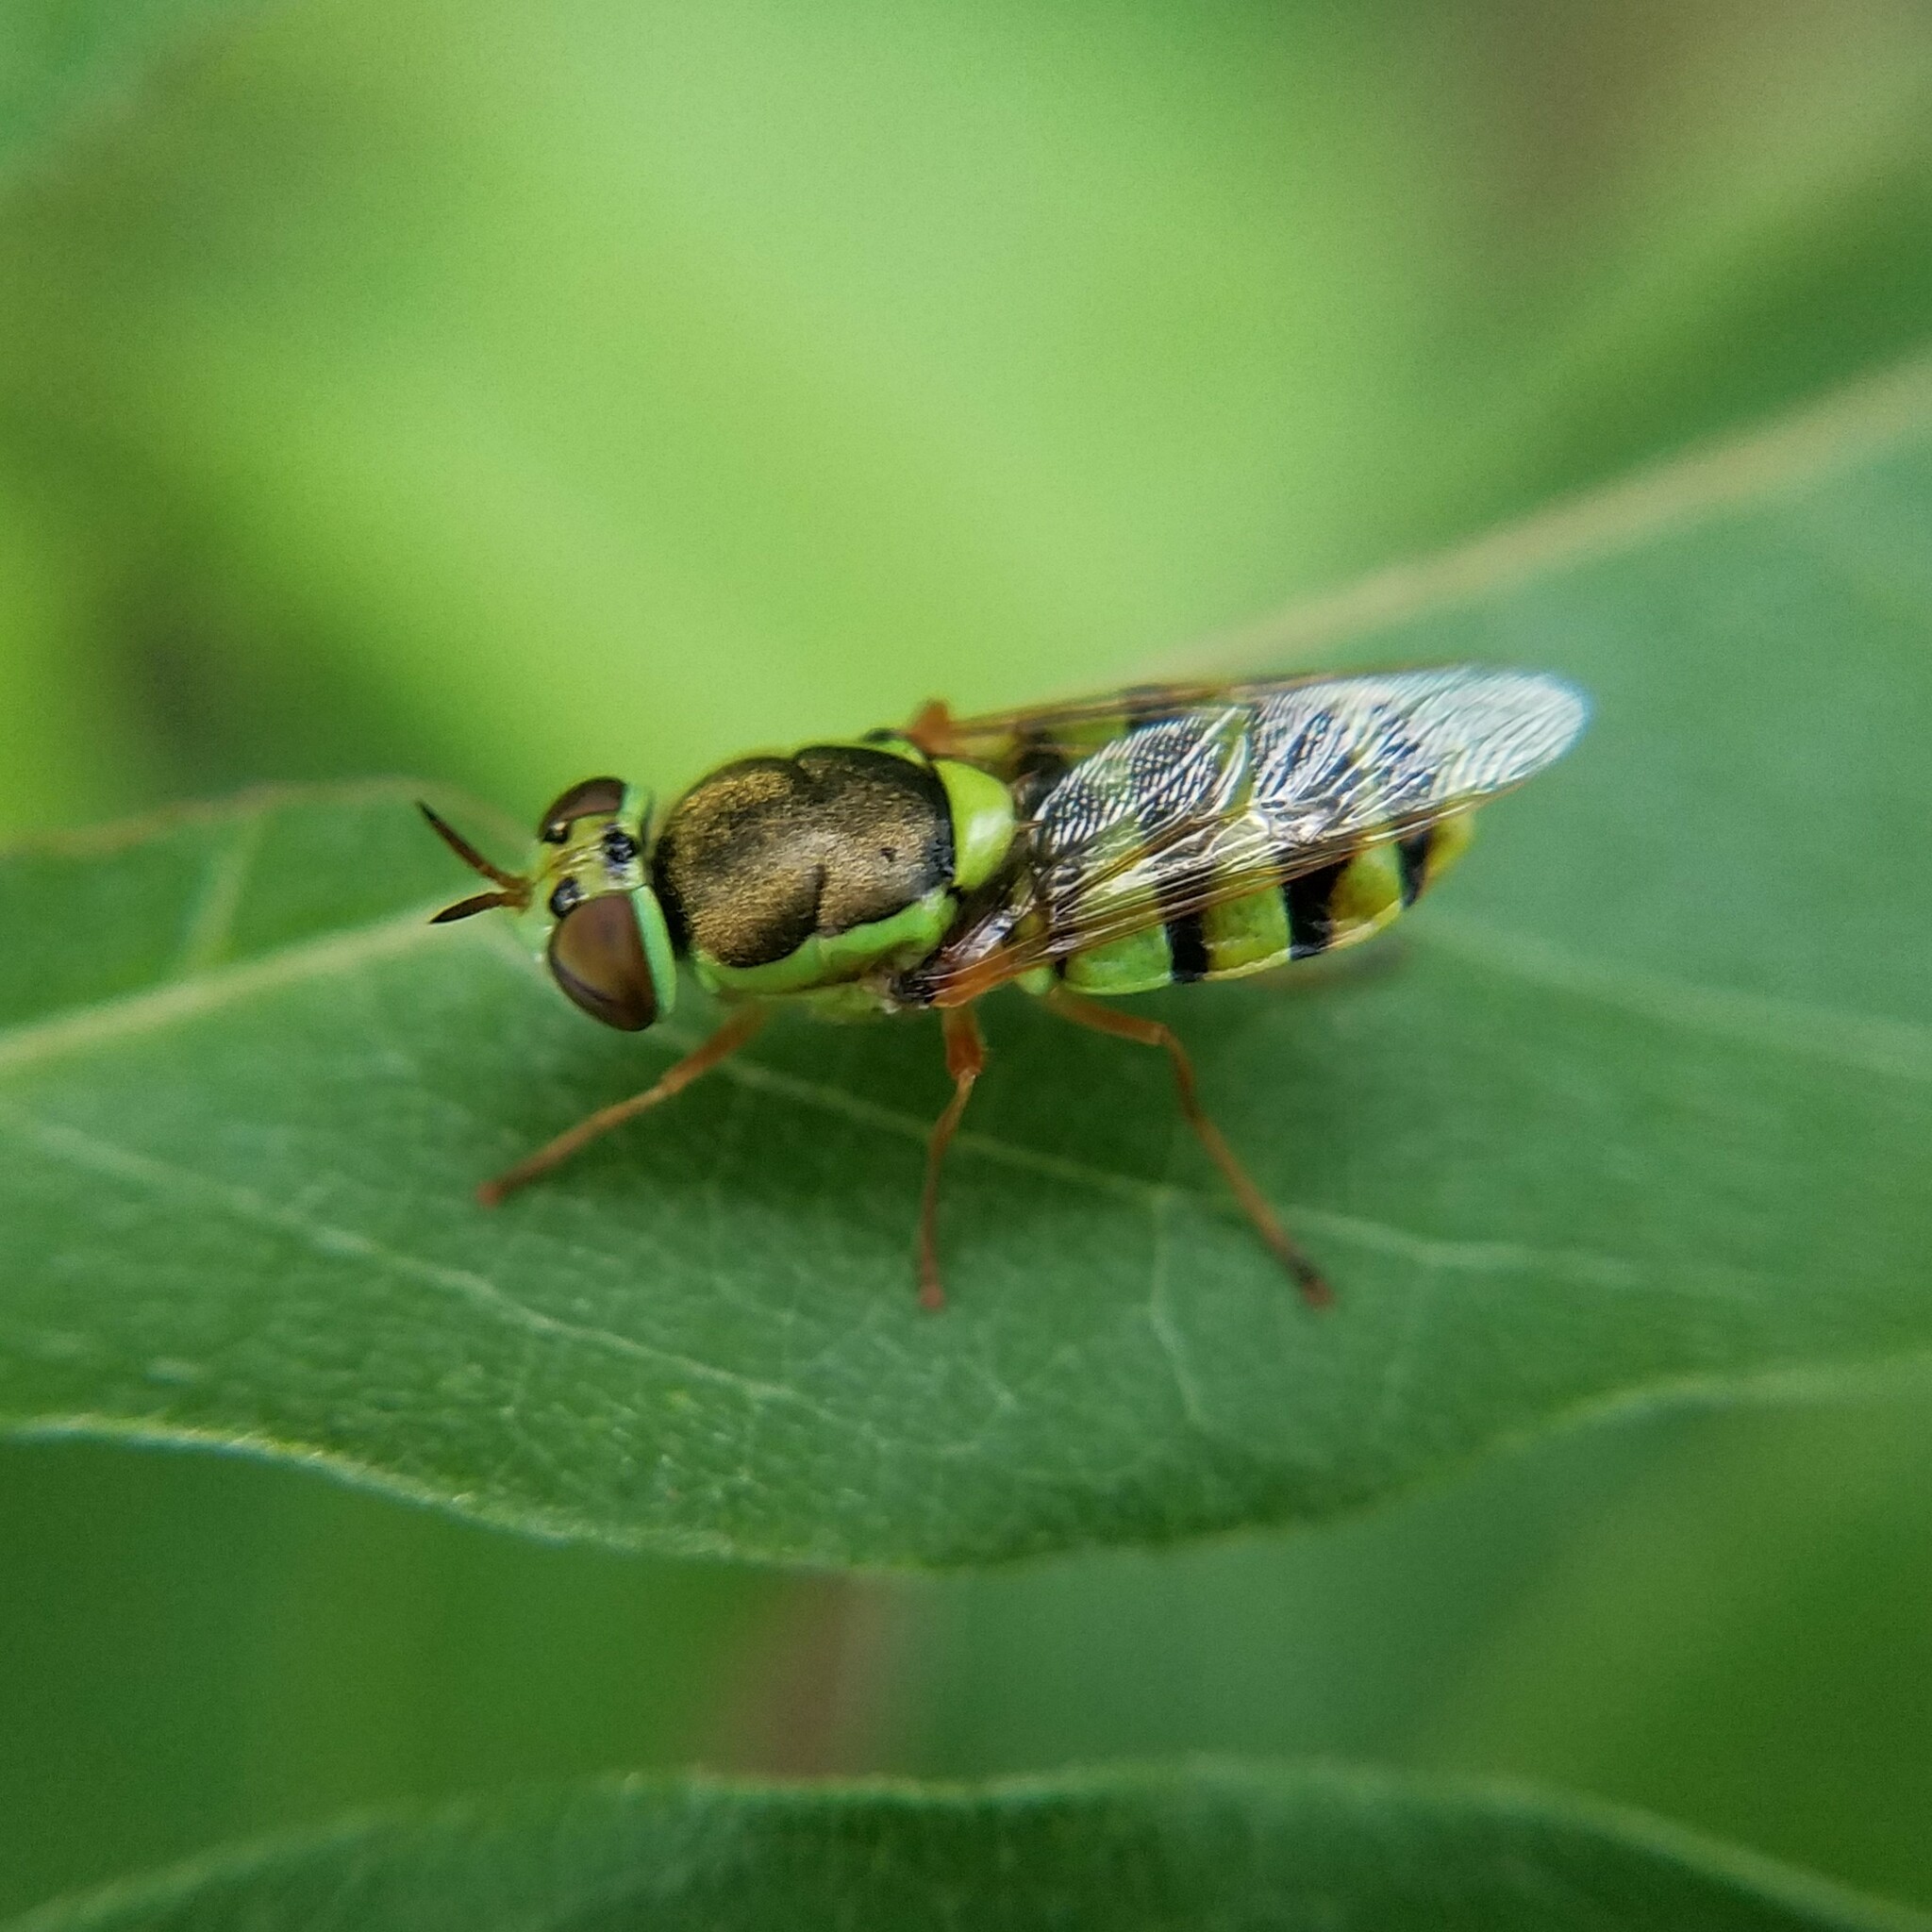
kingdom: Animalia
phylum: Arthropoda
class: Insecta
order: Diptera
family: Stratiomyidae
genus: Odontomyia
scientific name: Odontomyia cincta
